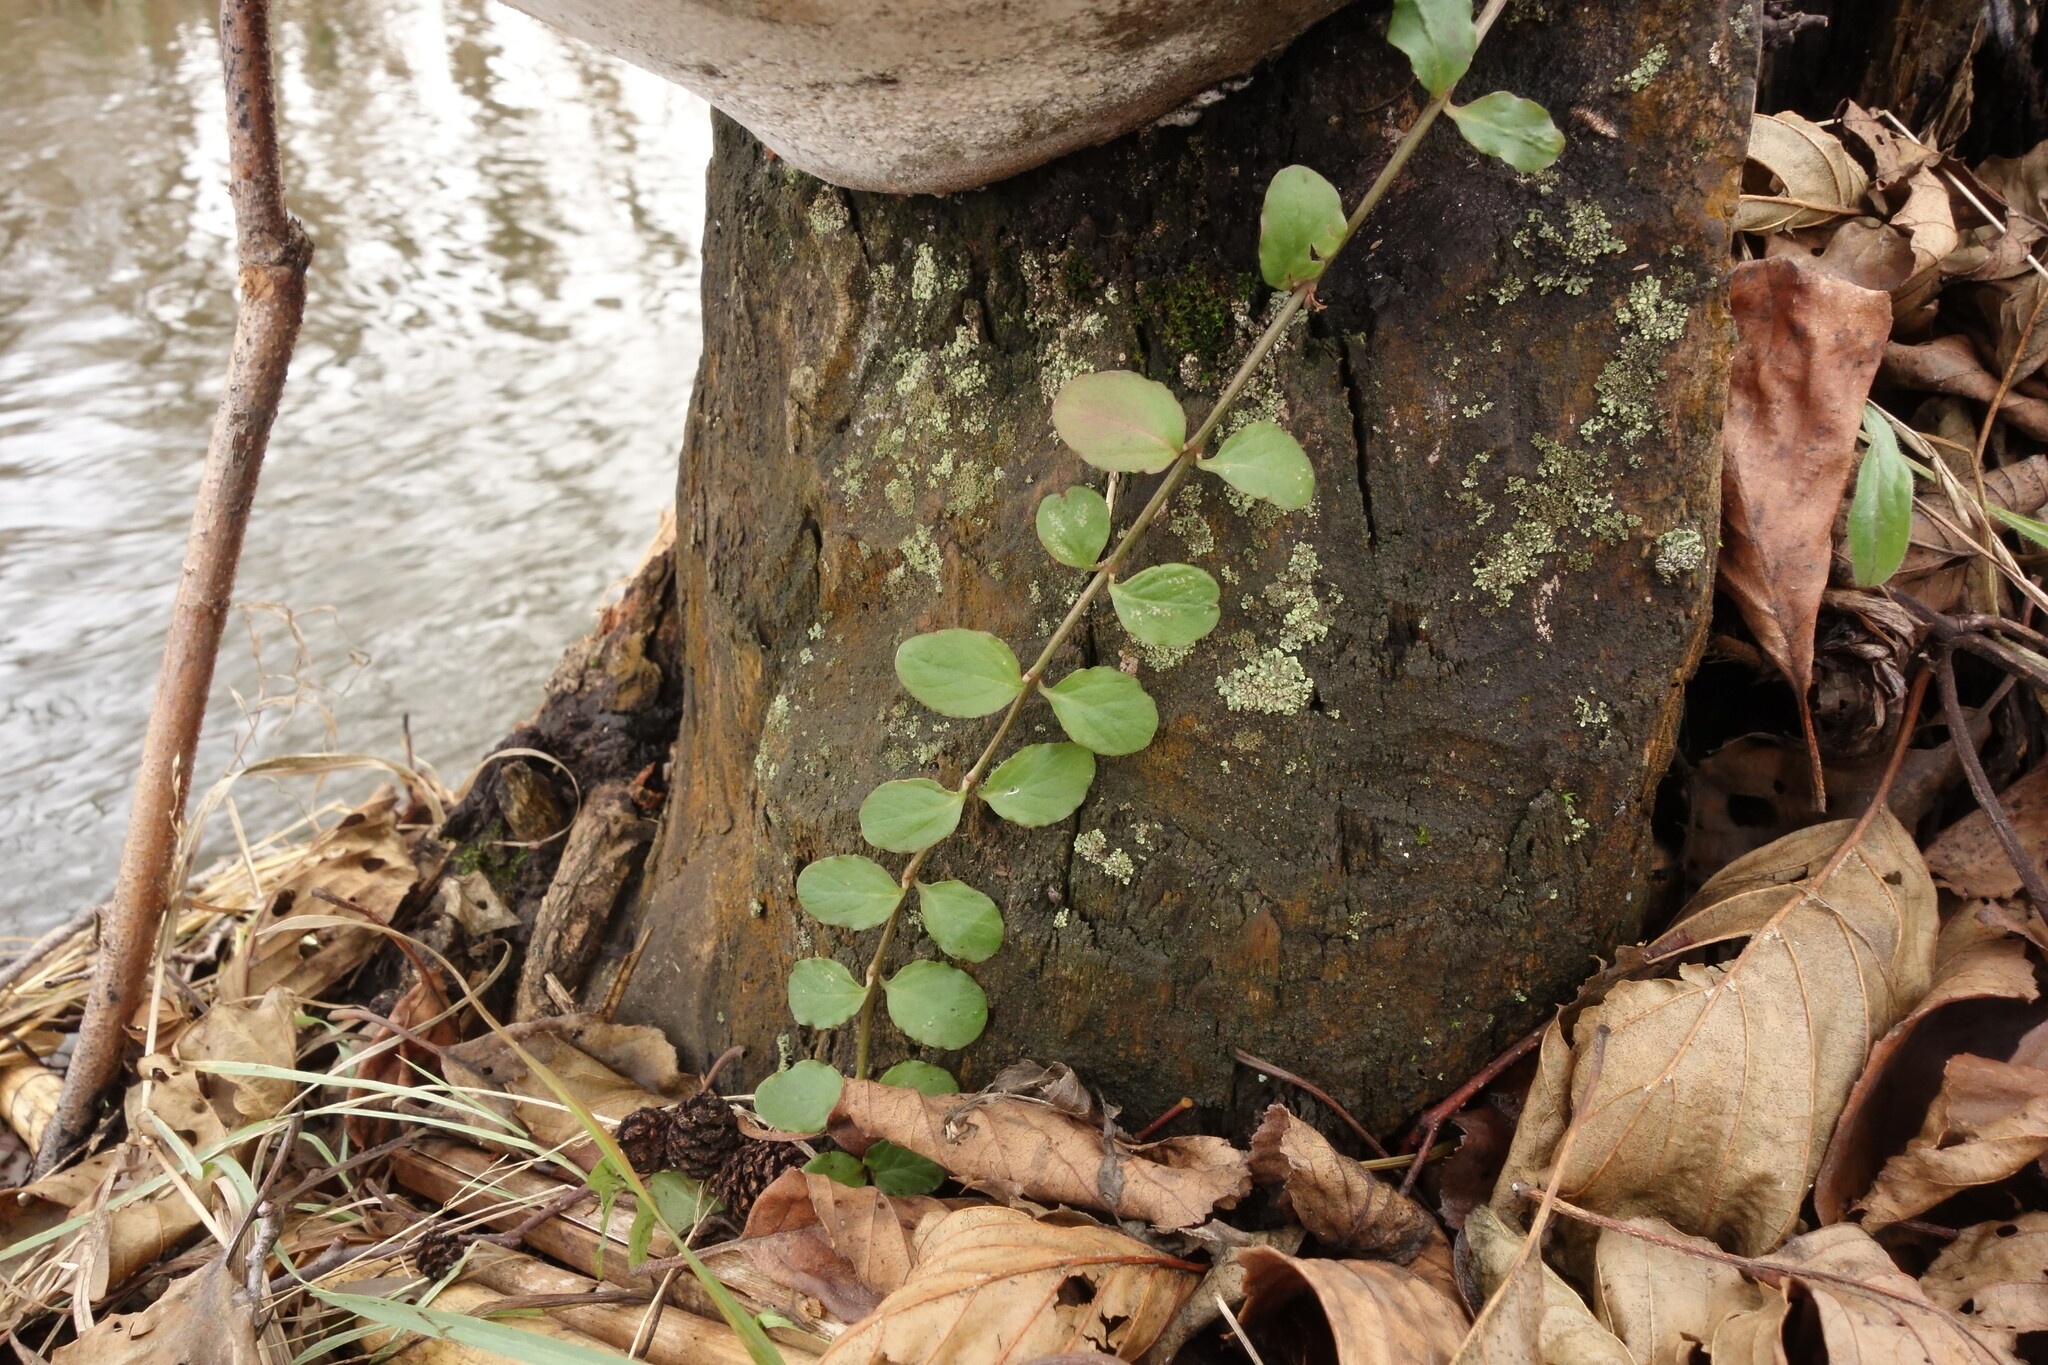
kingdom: Plantae
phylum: Tracheophyta
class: Magnoliopsida
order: Ericales
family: Primulaceae
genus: Lysimachia
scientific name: Lysimachia nummularia
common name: Moneywort
